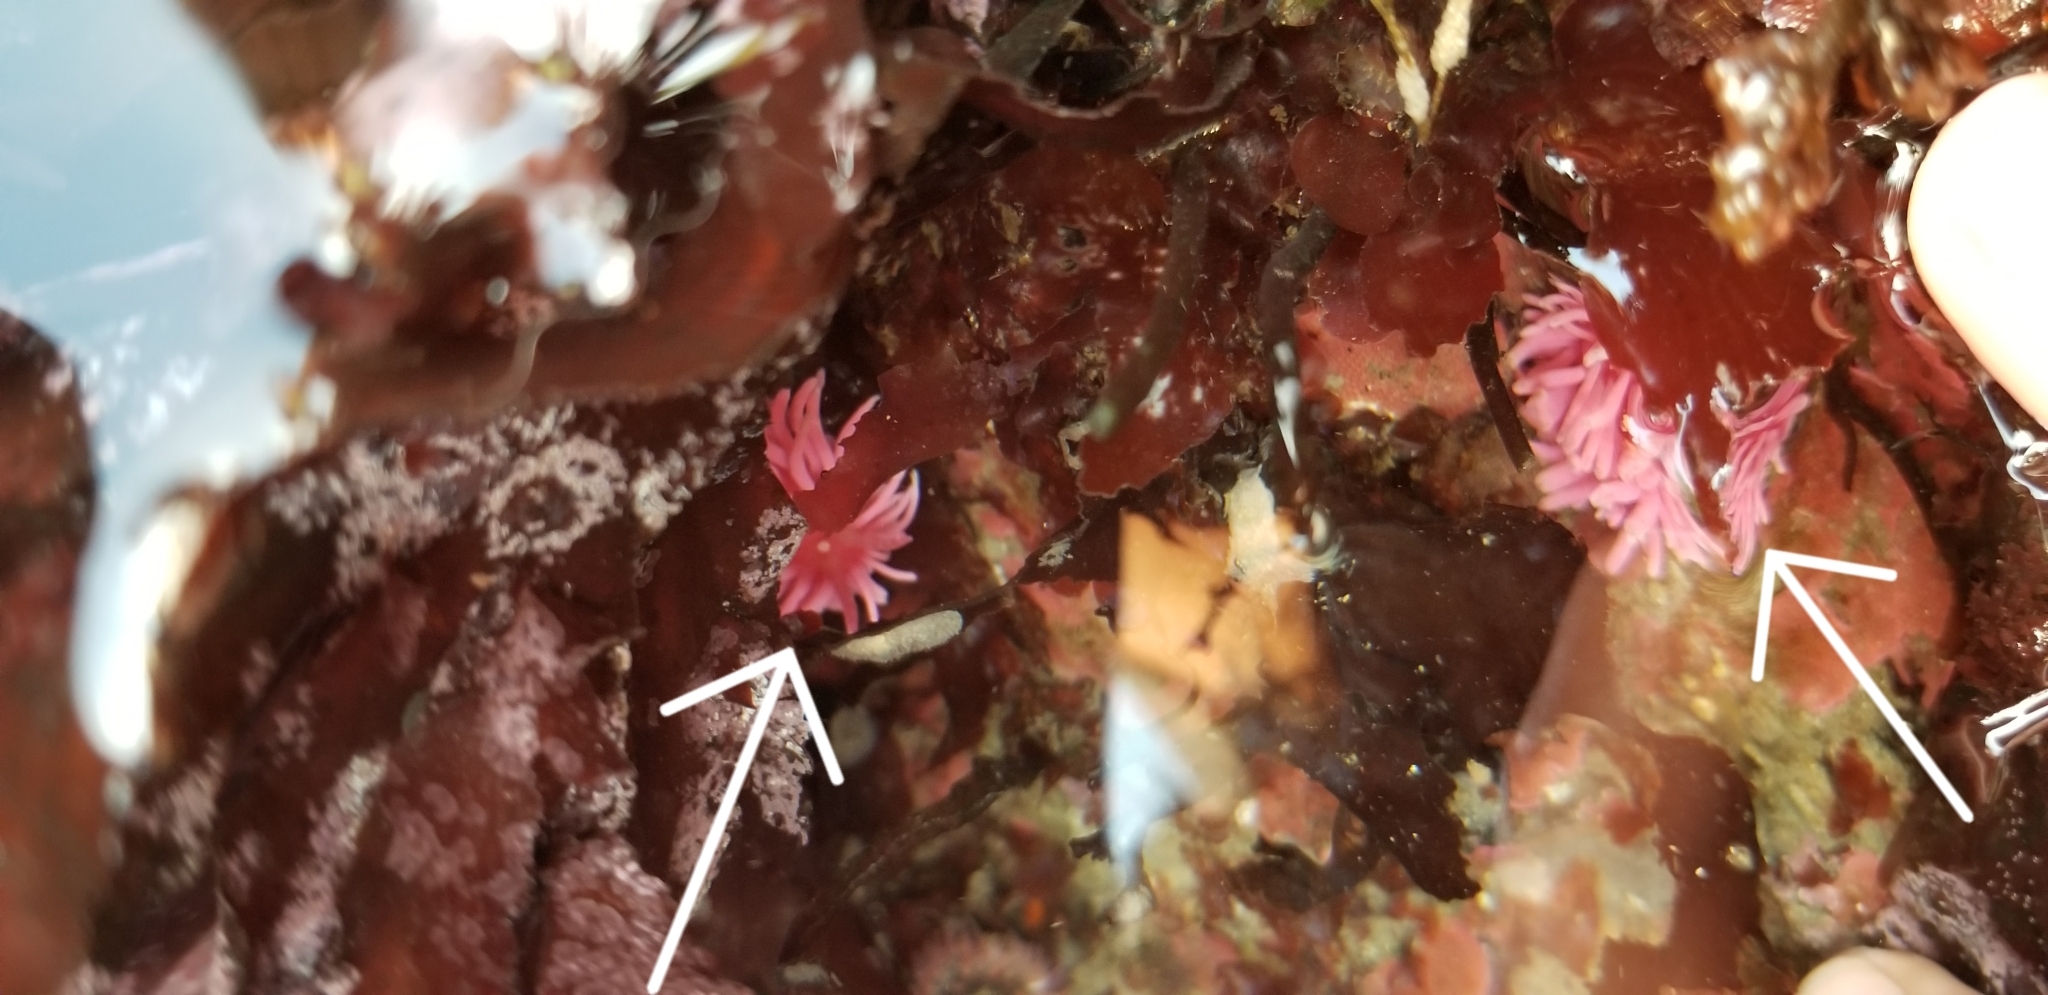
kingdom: Animalia
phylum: Mollusca
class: Gastropoda
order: Nudibranchia
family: Goniodorididae
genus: Okenia
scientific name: Okenia
